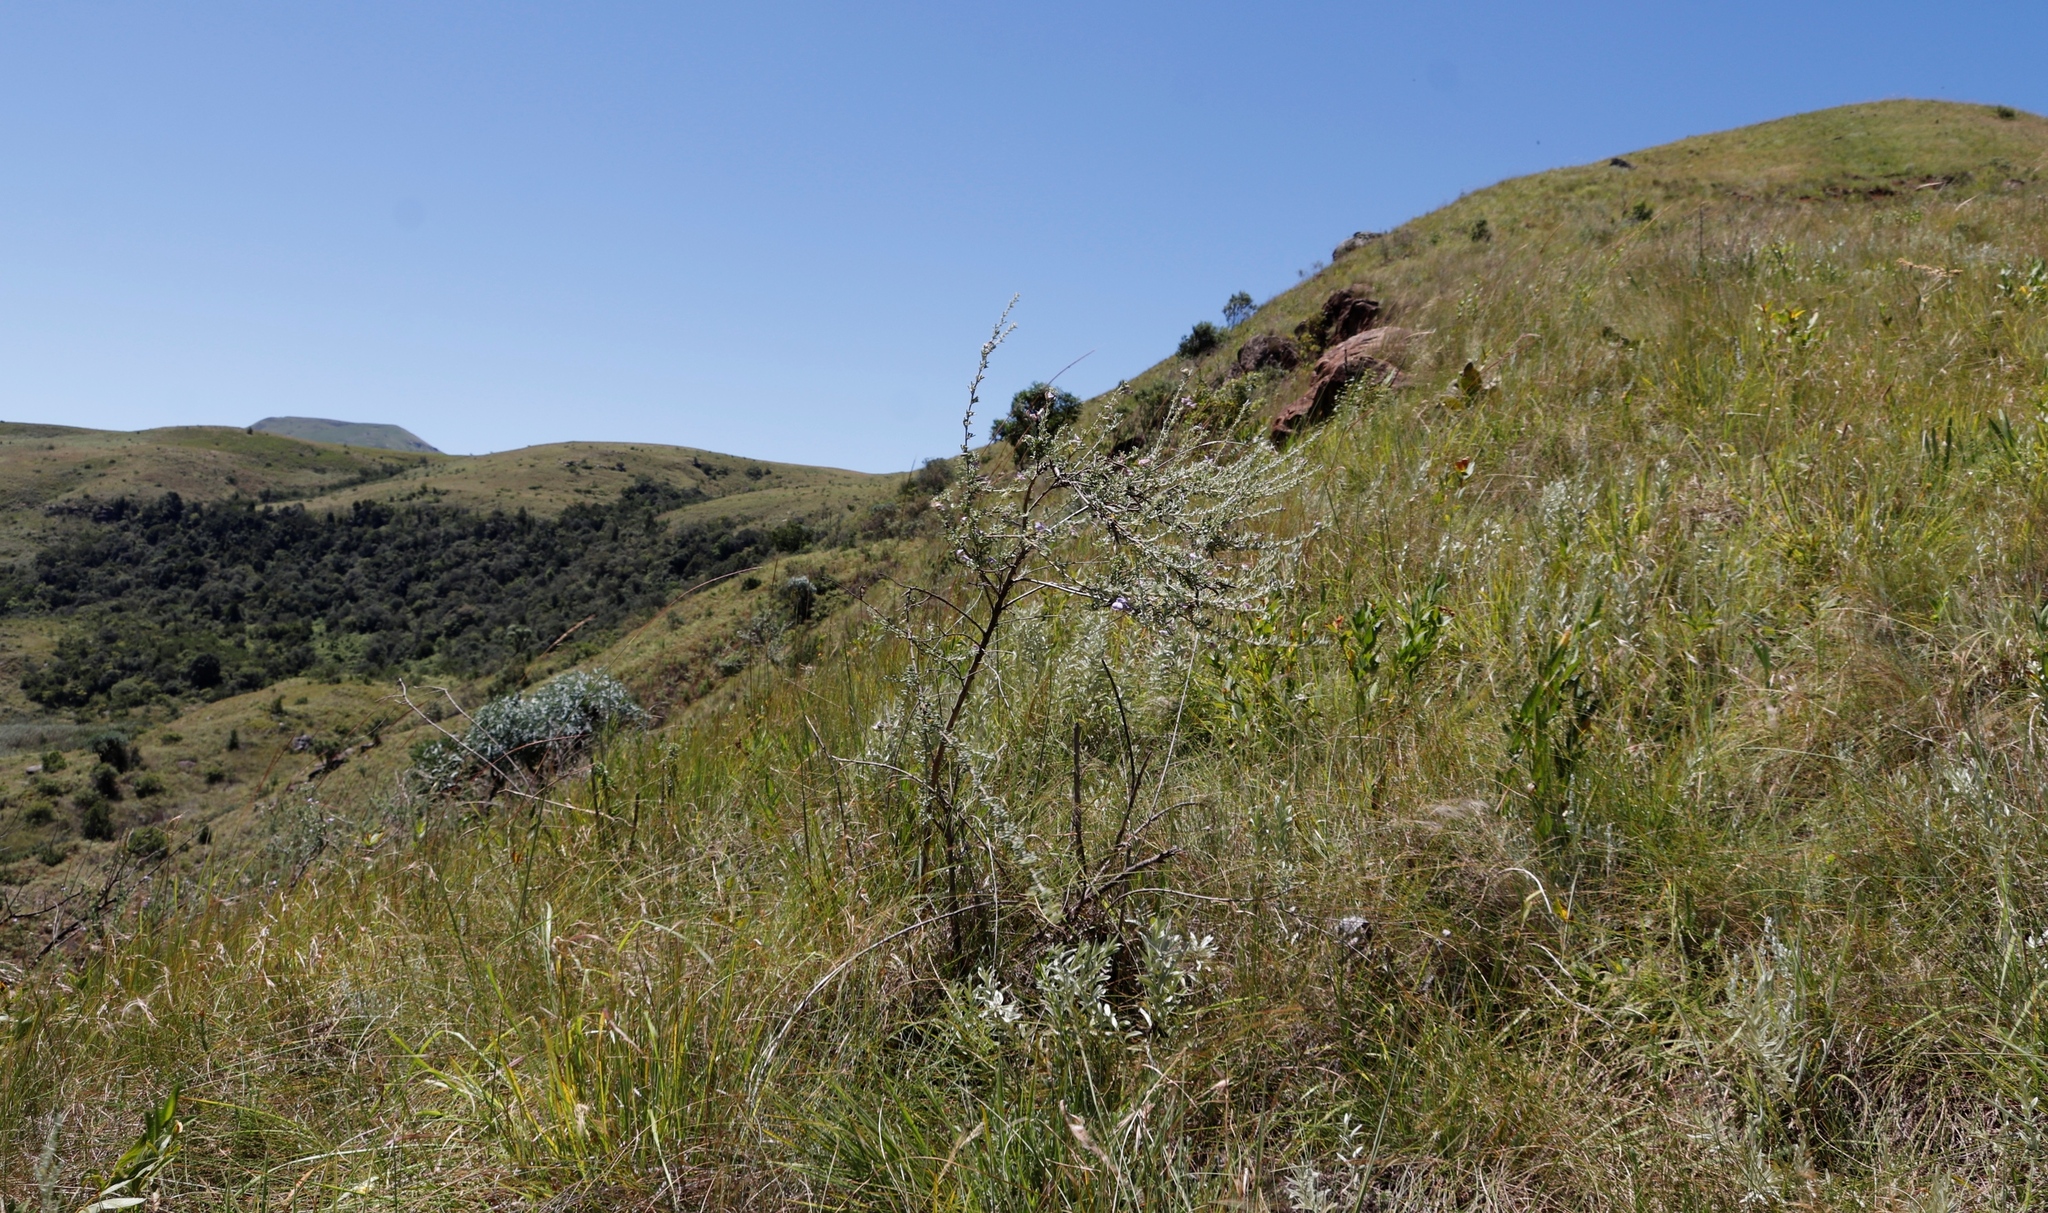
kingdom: Plantae
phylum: Tracheophyta
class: Magnoliopsida
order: Fabales
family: Fabaceae
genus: Lotononis
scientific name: Lotononis lotononoides
